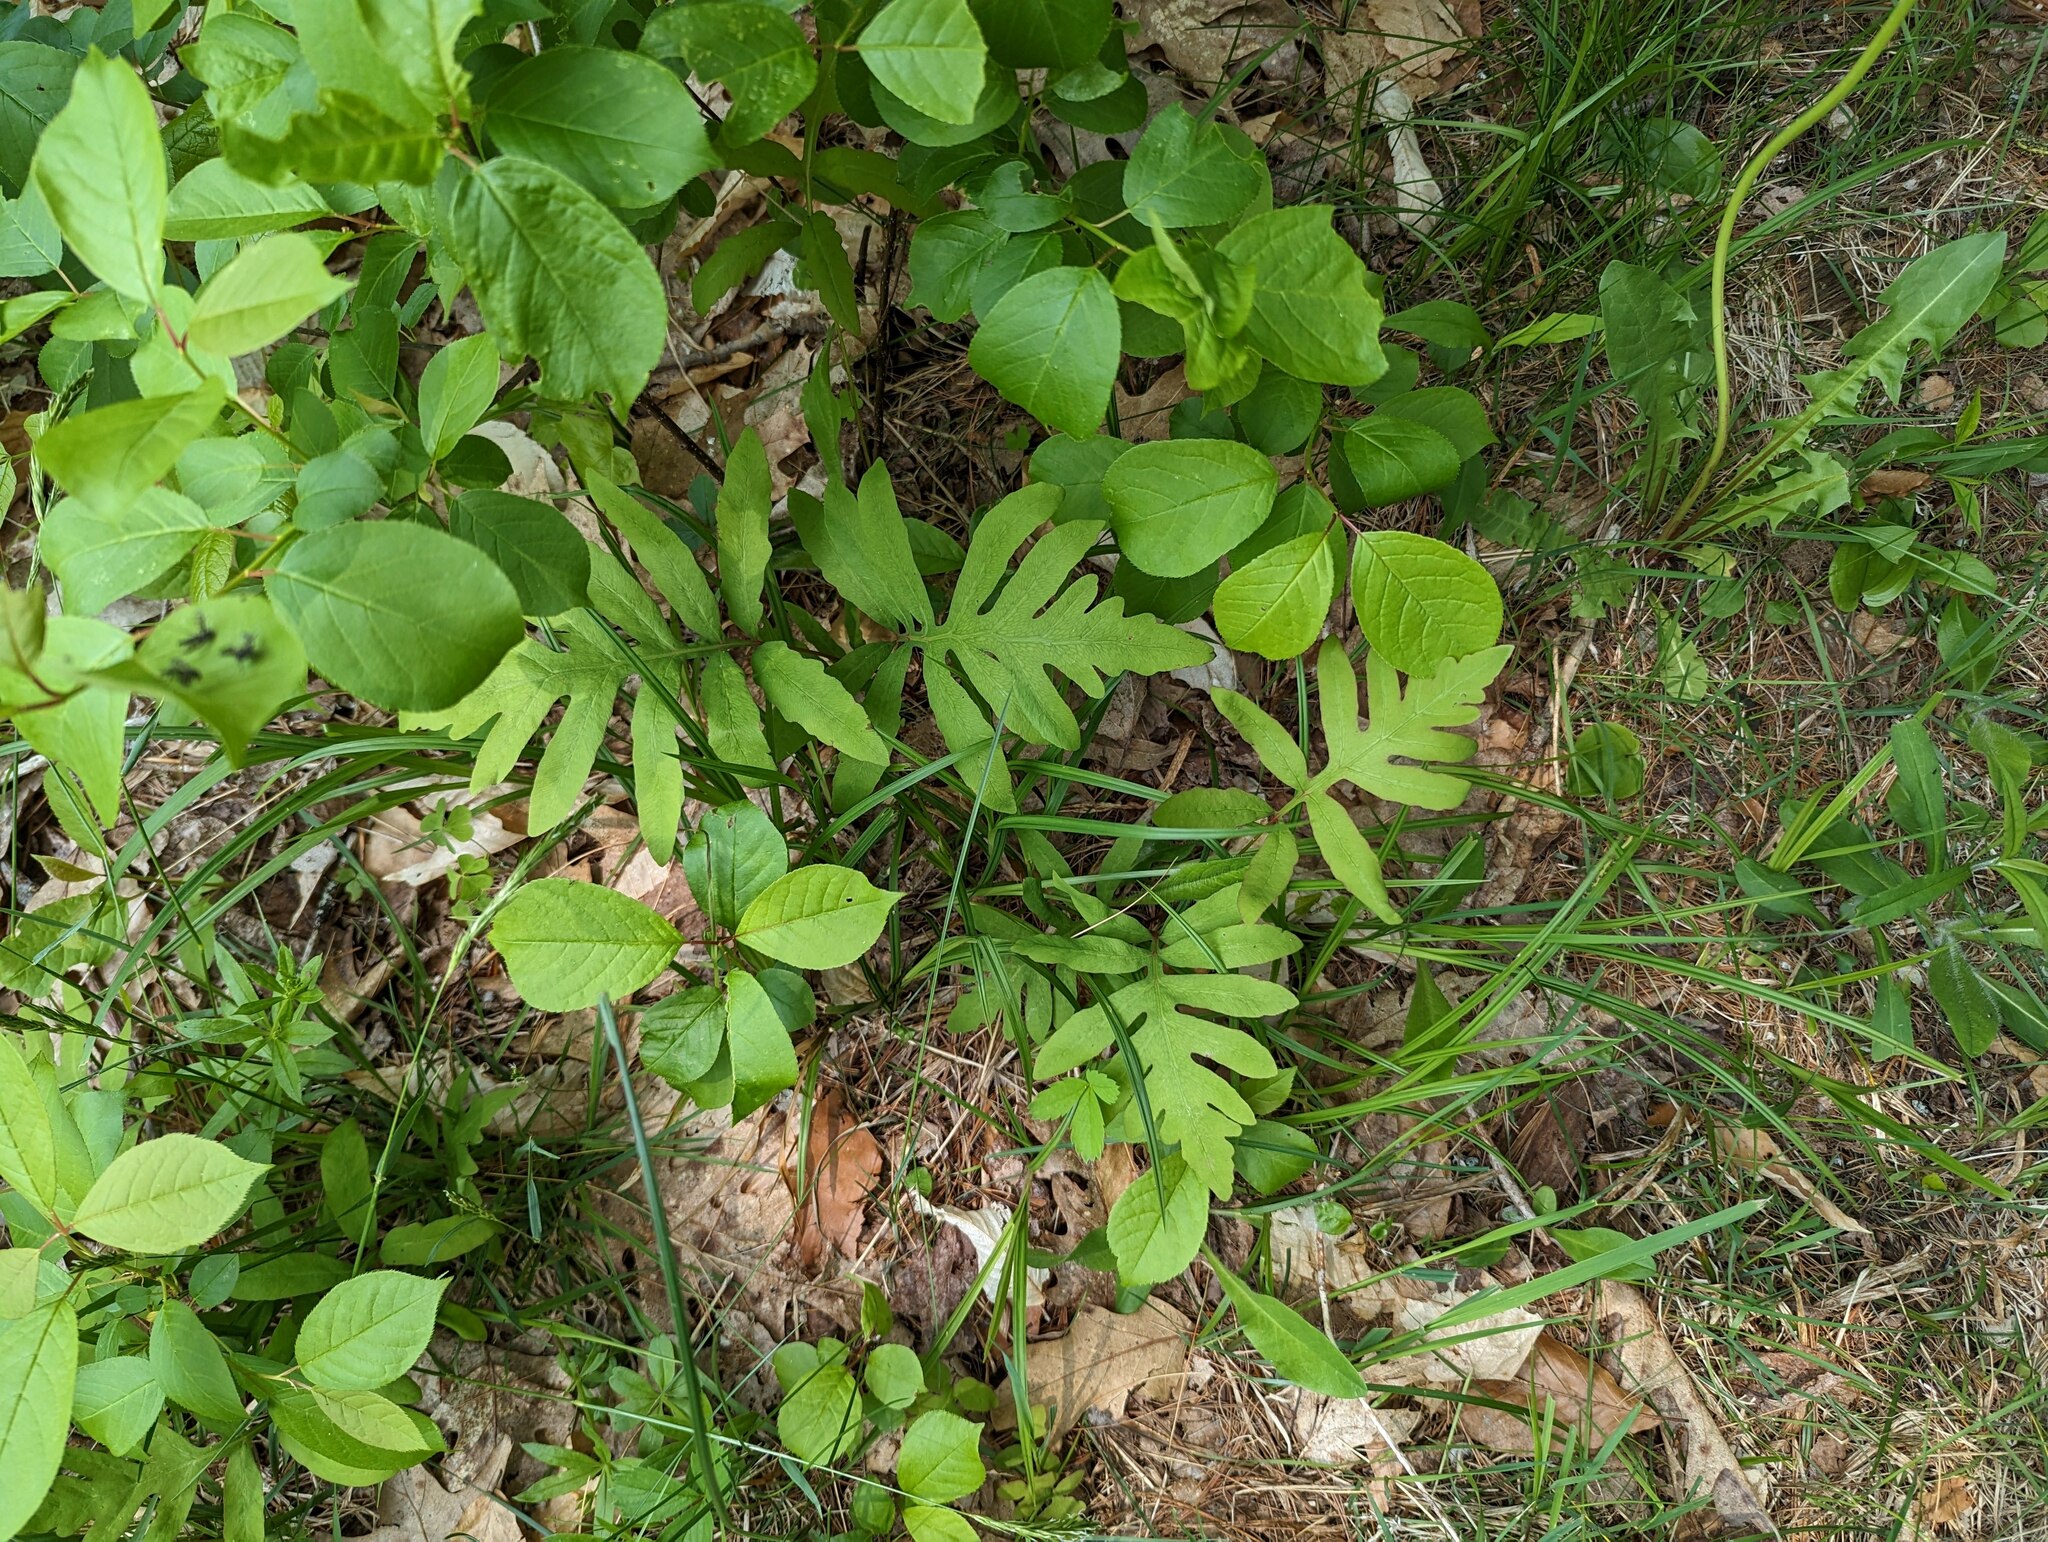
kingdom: Plantae
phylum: Tracheophyta
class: Polypodiopsida
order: Polypodiales
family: Onocleaceae
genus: Onoclea
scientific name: Onoclea sensibilis
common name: Sensitive fern
